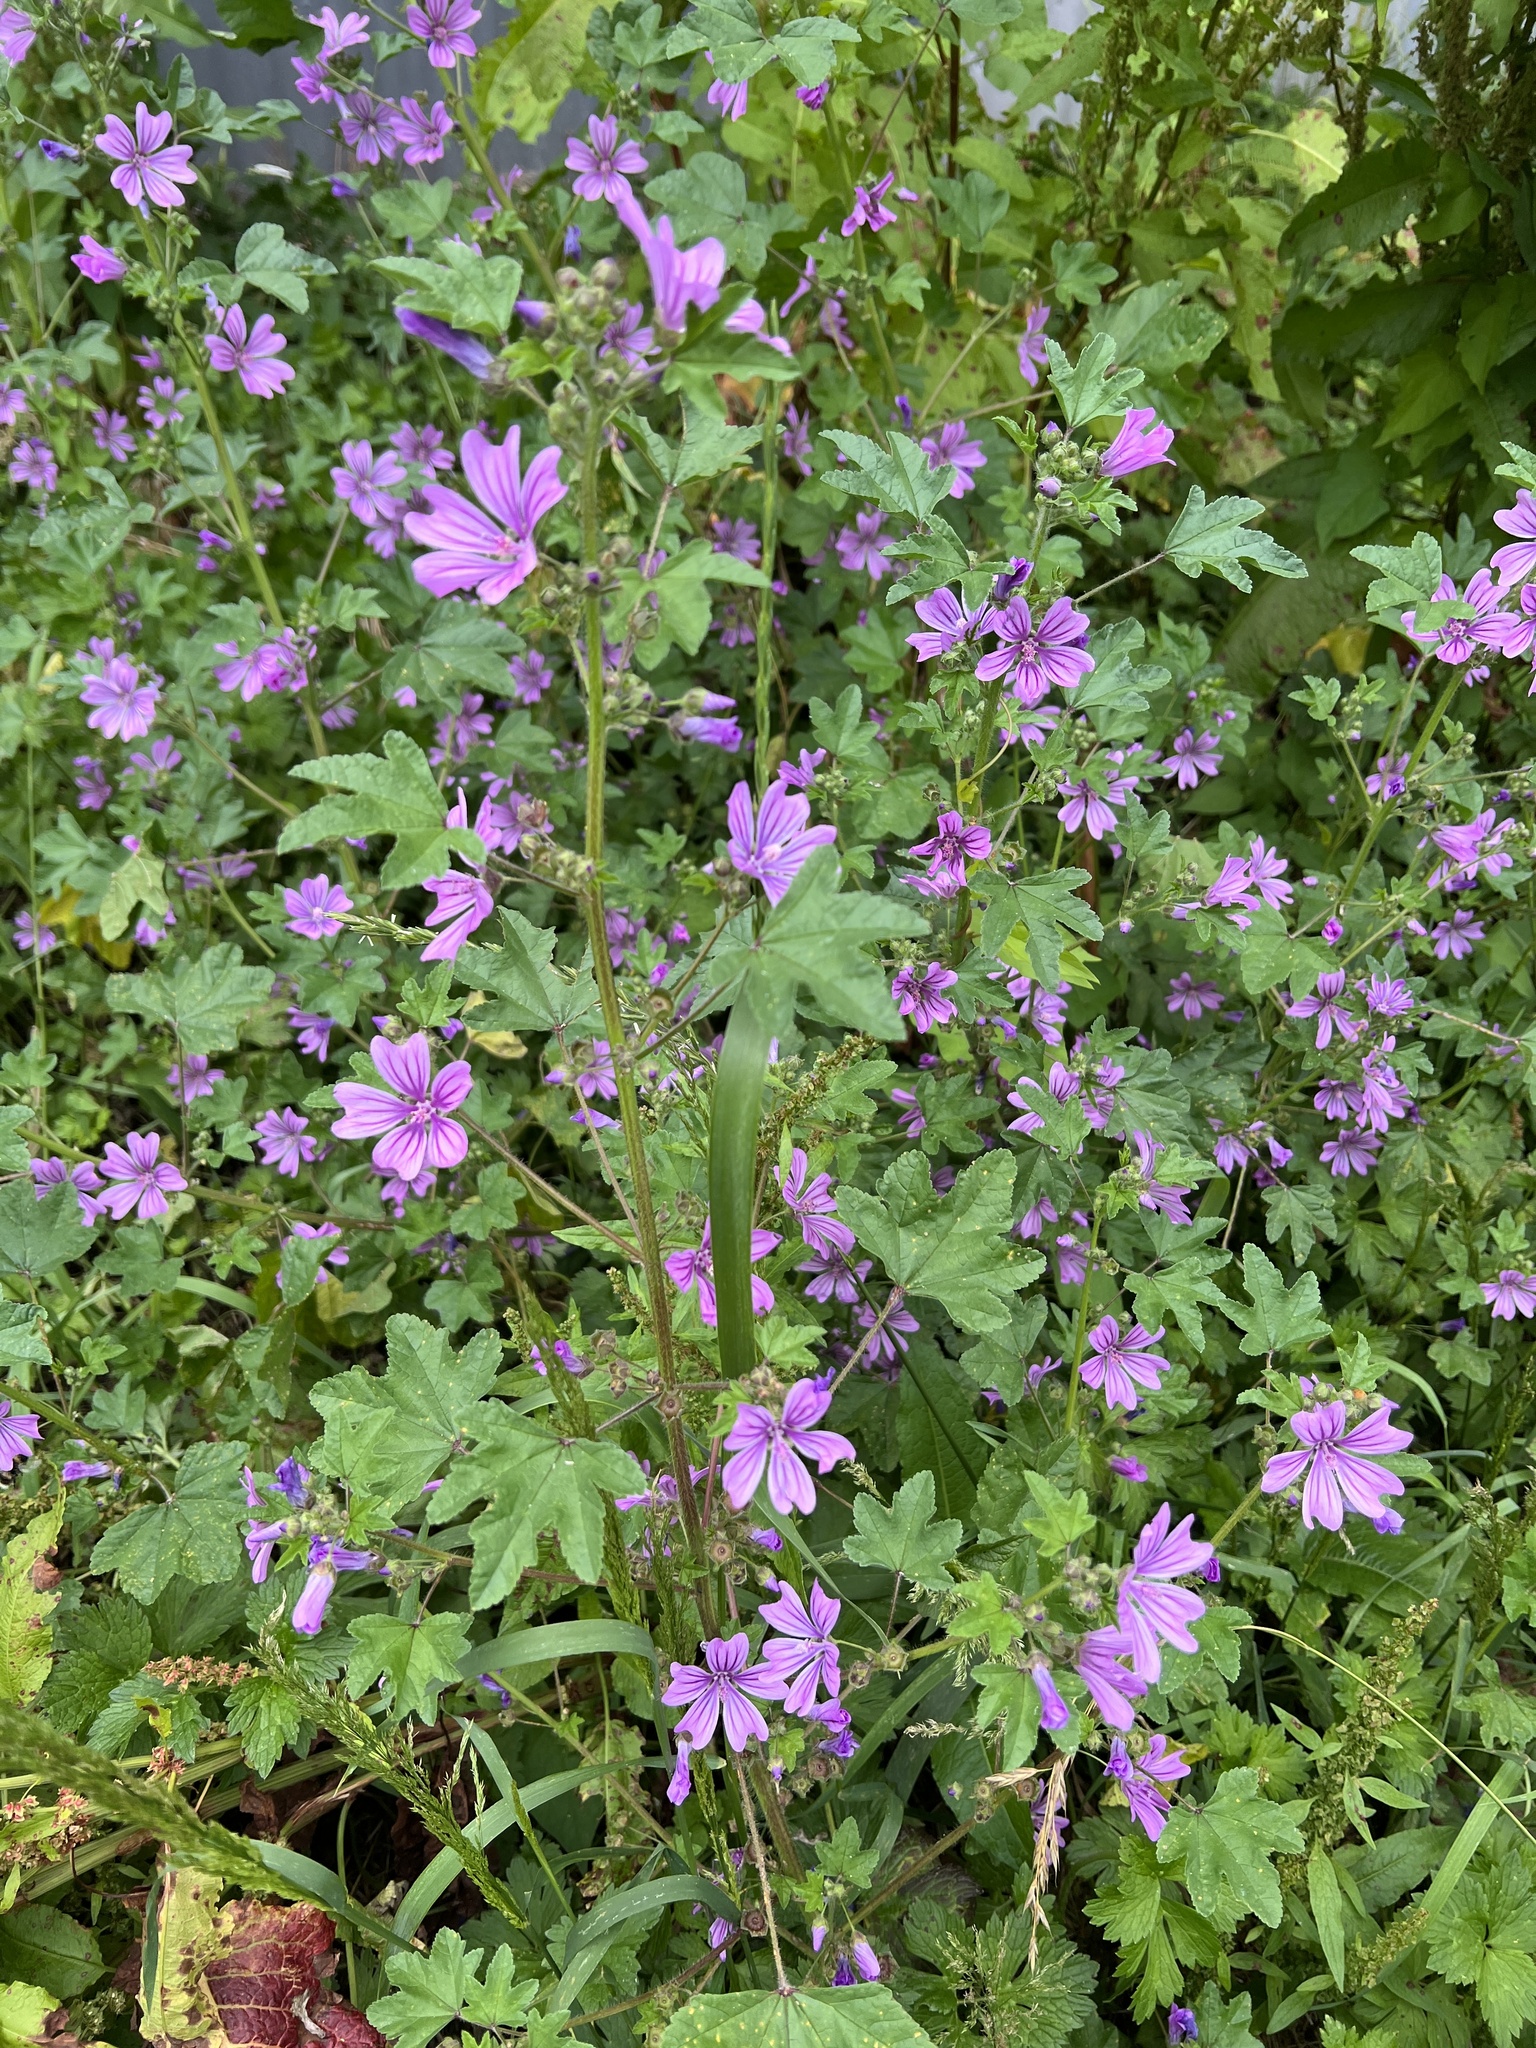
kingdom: Plantae
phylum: Tracheophyta
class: Magnoliopsida
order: Malvales
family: Malvaceae
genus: Malva
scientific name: Malva sylvestris
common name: Common mallow
